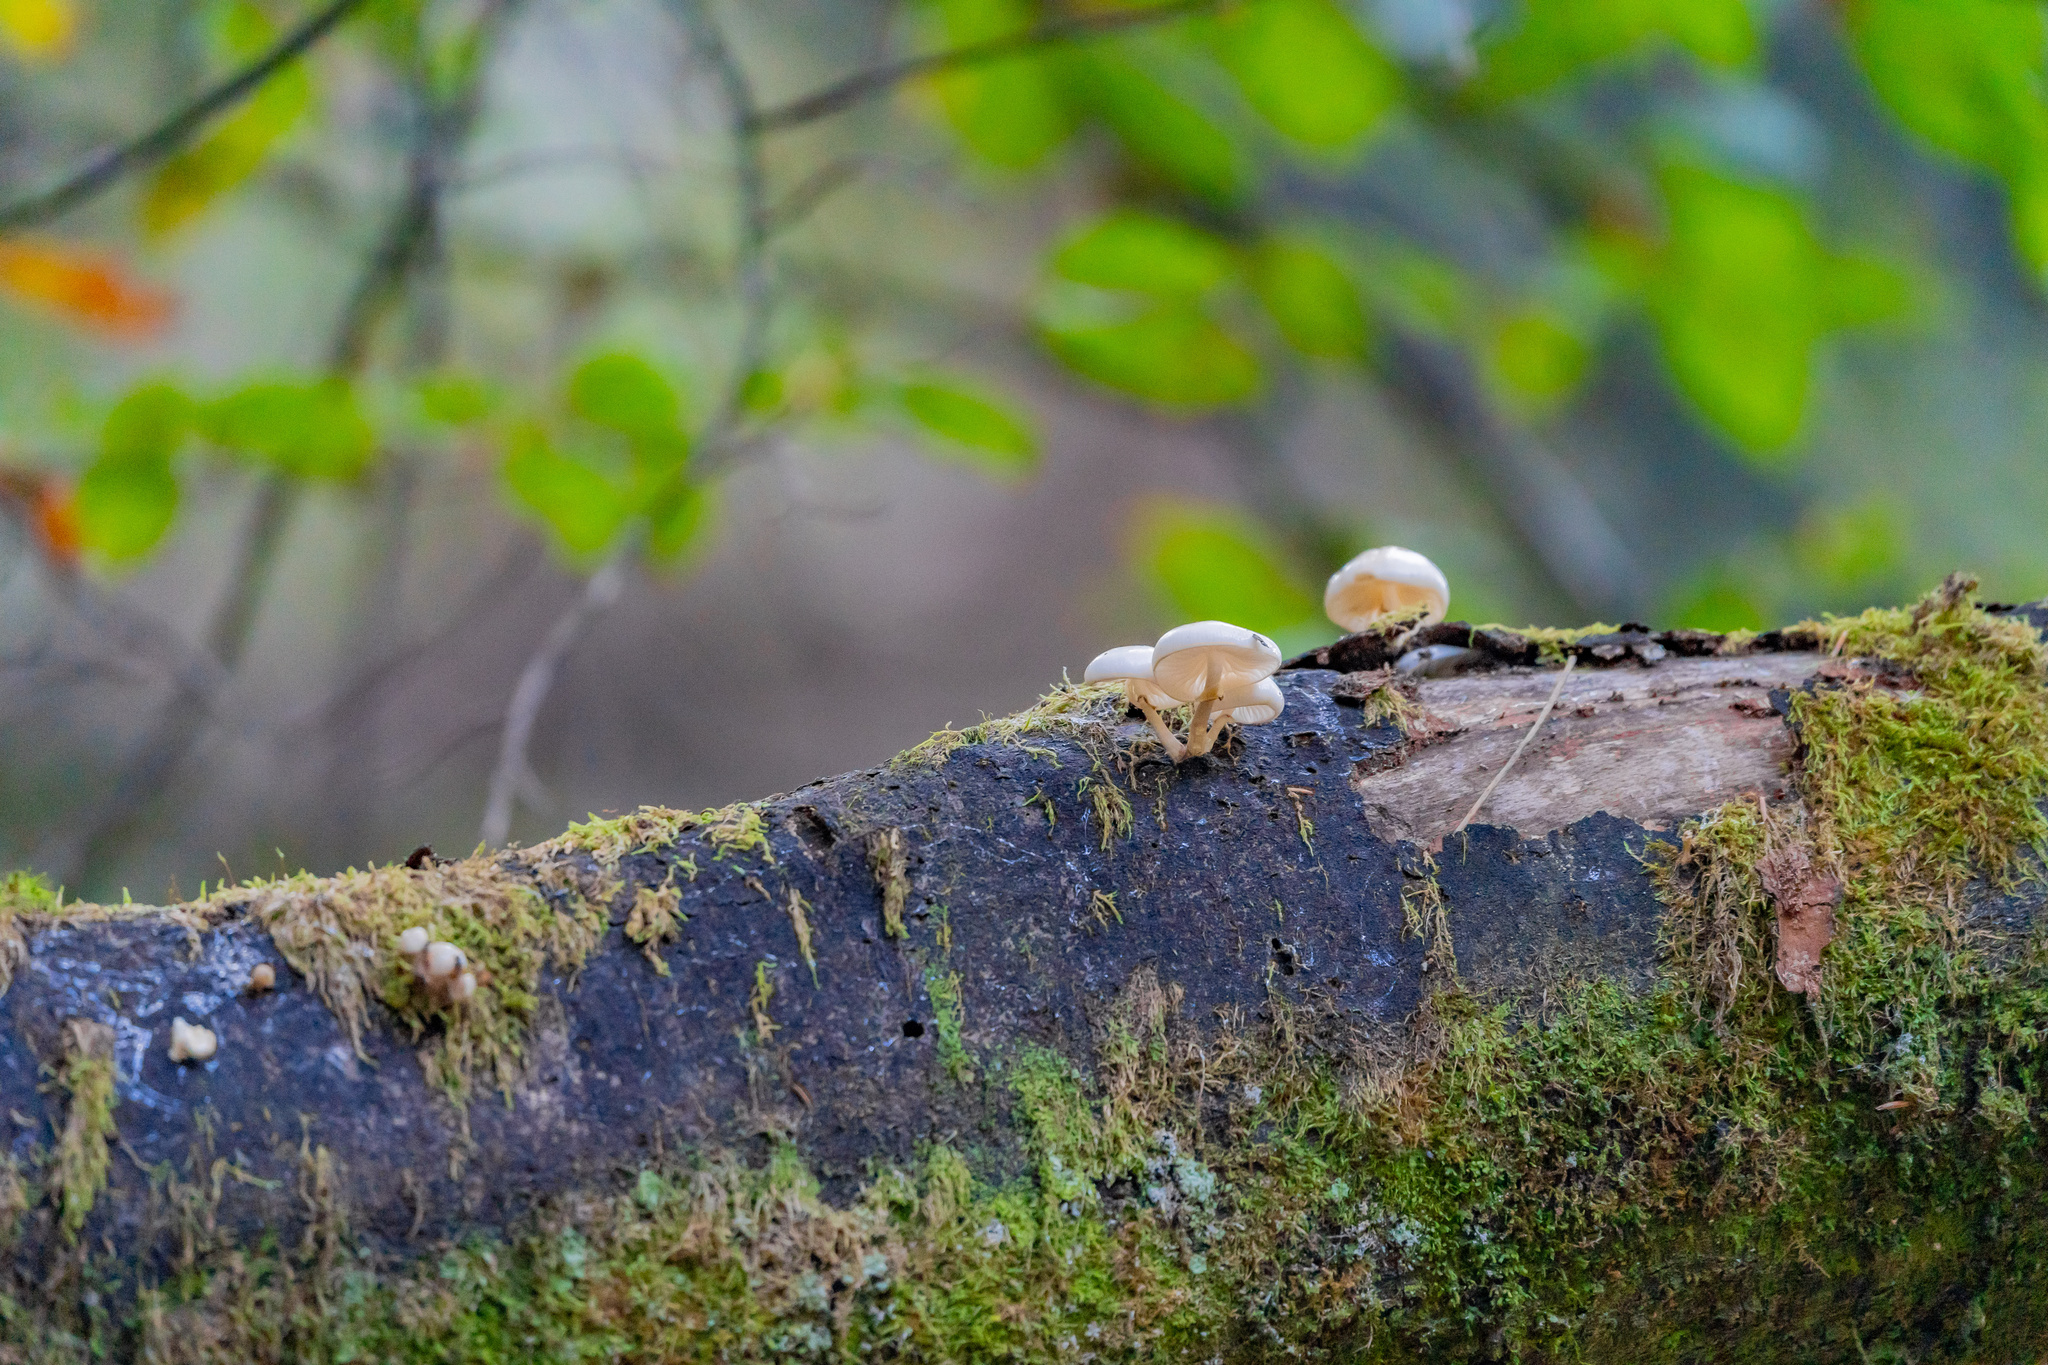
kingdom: Fungi
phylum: Basidiomycota
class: Agaricomycetes
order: Agaricales
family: Physalacriaceae
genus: Mucidula
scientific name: Mucidula mucida
